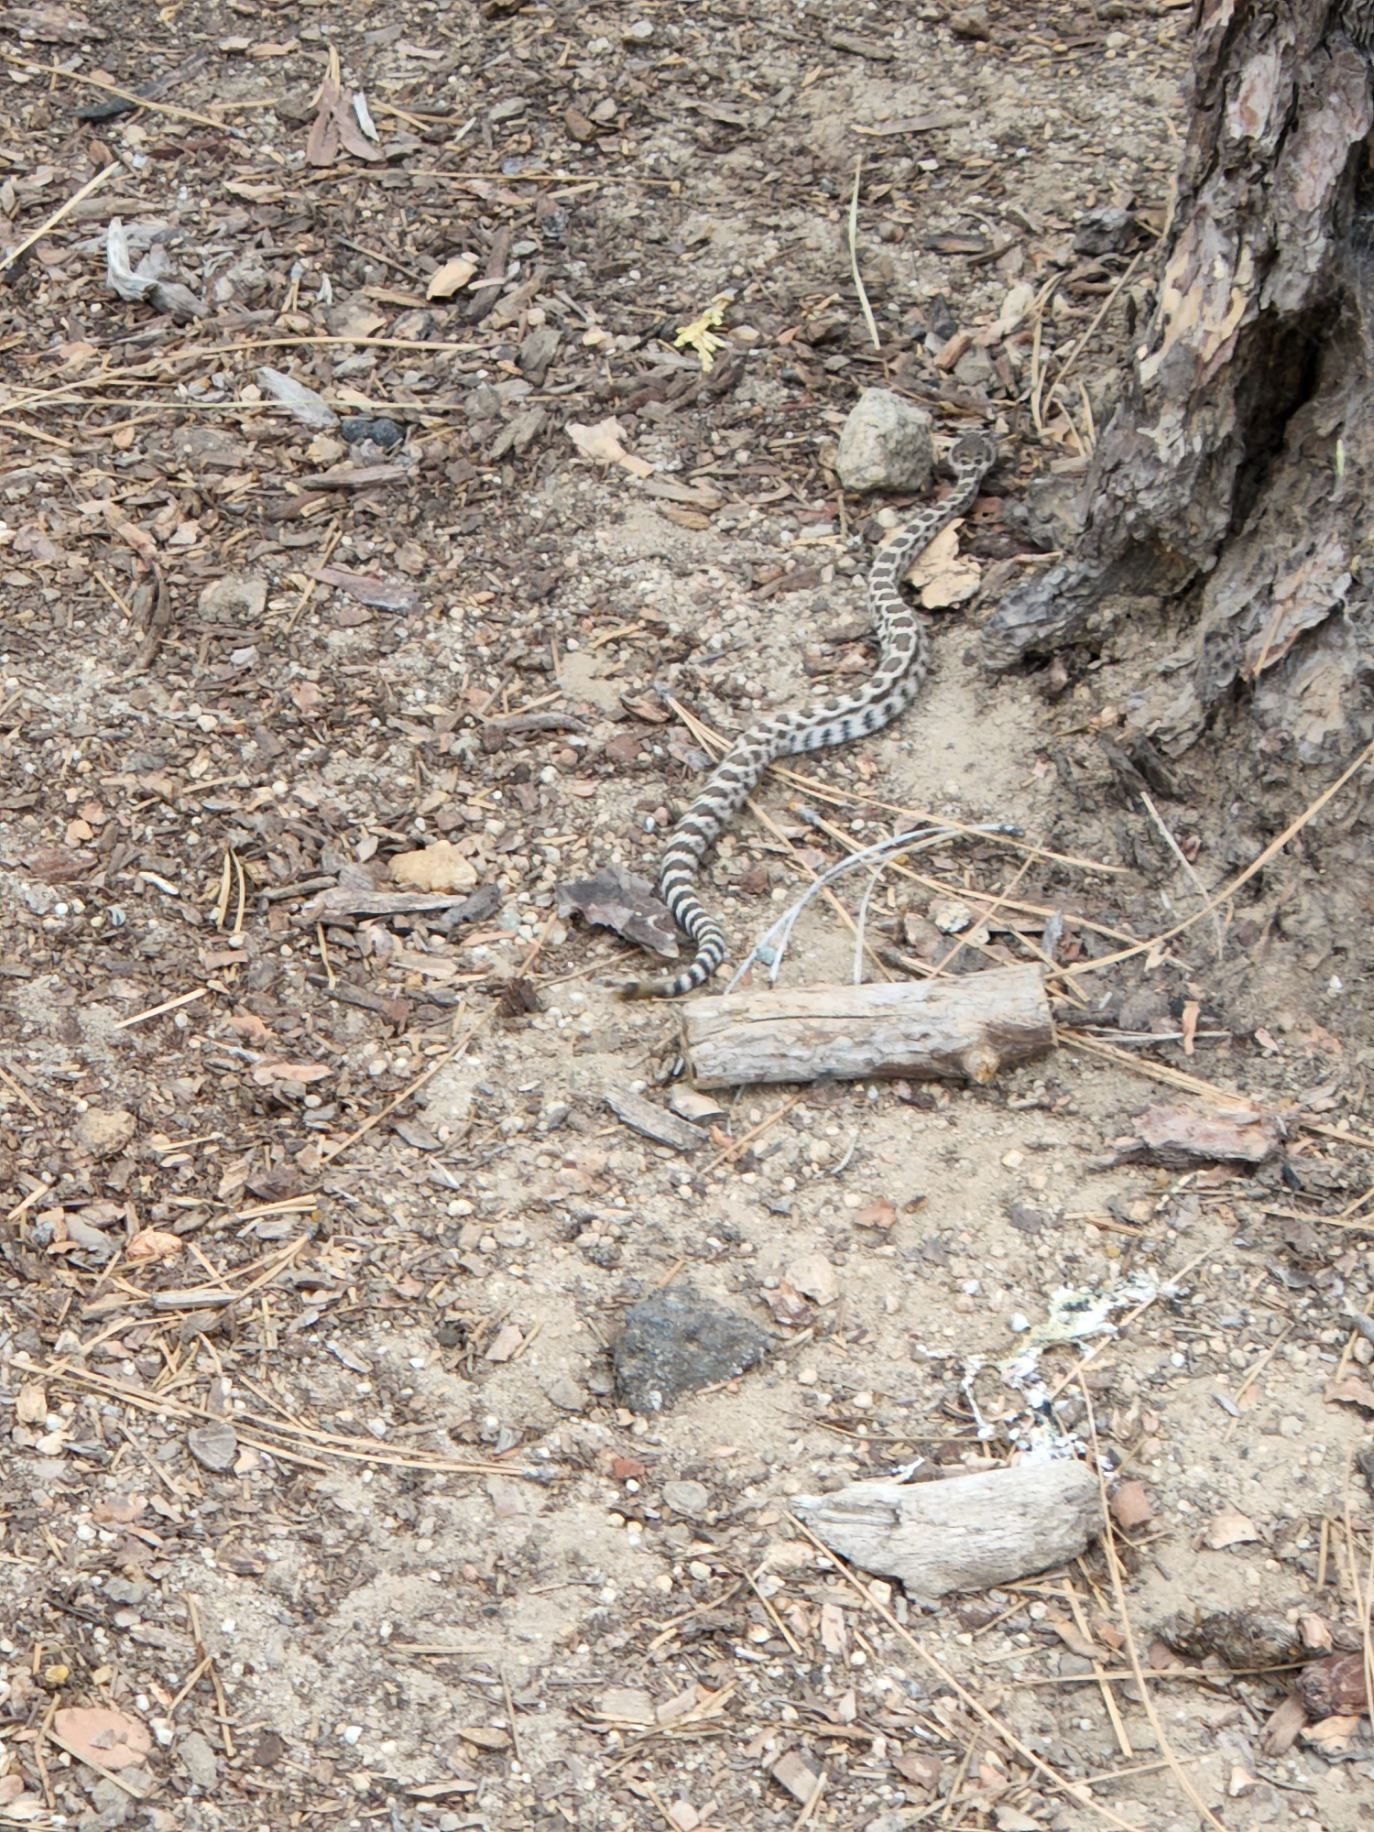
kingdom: Animalia
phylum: Chordata
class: Squamata
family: Viperidae
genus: Crotalus
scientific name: Crotalus oreganus
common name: Abyssus
